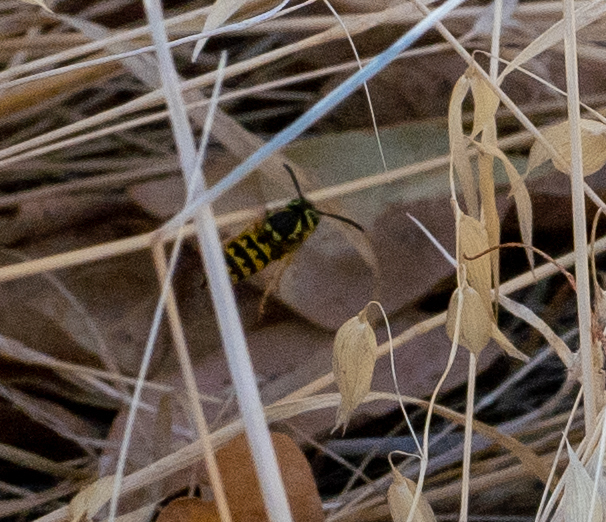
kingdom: Animalia
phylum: Arthropoda
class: Insecta
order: Hymenoptera
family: Vespidae
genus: Vespula
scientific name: Vespula pensylvanica
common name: Western yellowjacket
